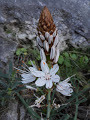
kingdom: Plantae
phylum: Tracheophyta
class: Liliopsida
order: Asparagales
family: Asphodelaceae
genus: Asphodelus
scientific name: Asphodelus albus
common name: White asphodel
